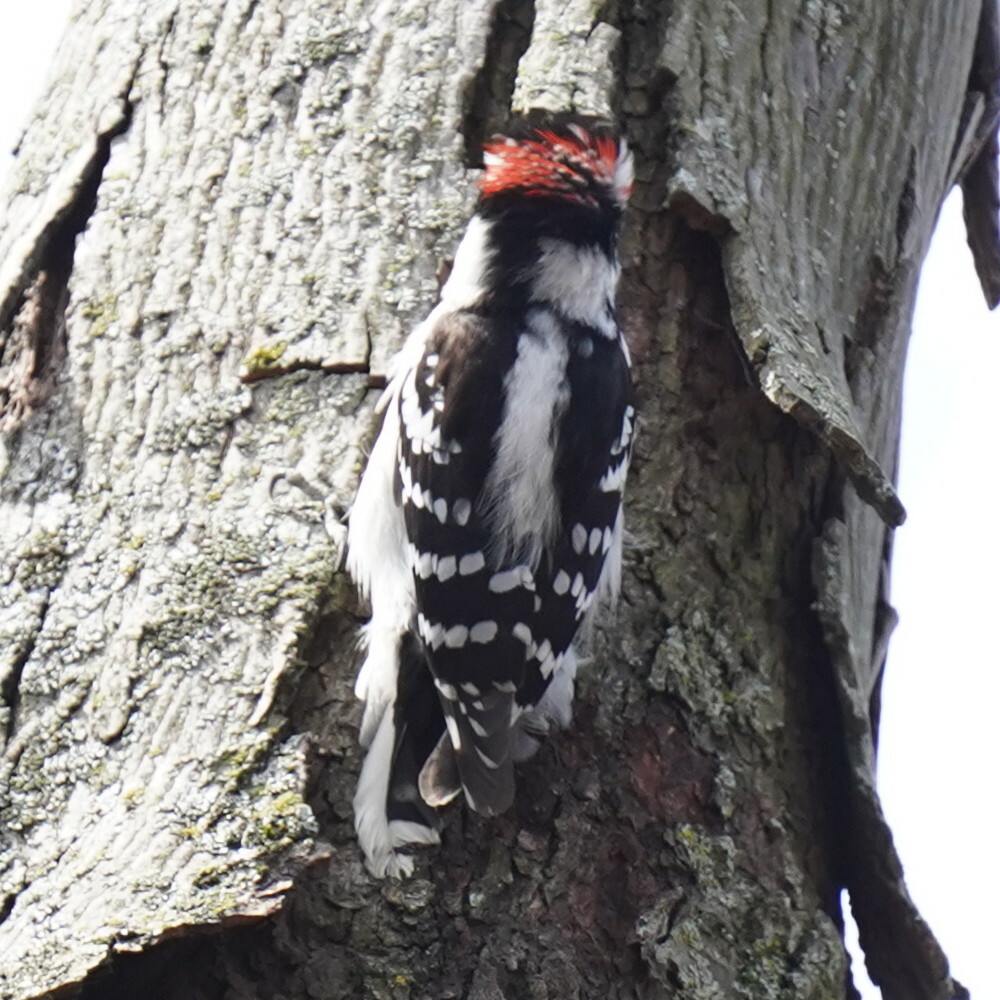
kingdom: Animalia
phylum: Chordata
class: Aves
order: Piciformes
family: Picidae
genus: Dryobates
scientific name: Dryobates pubescens
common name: Downy woodpecker
